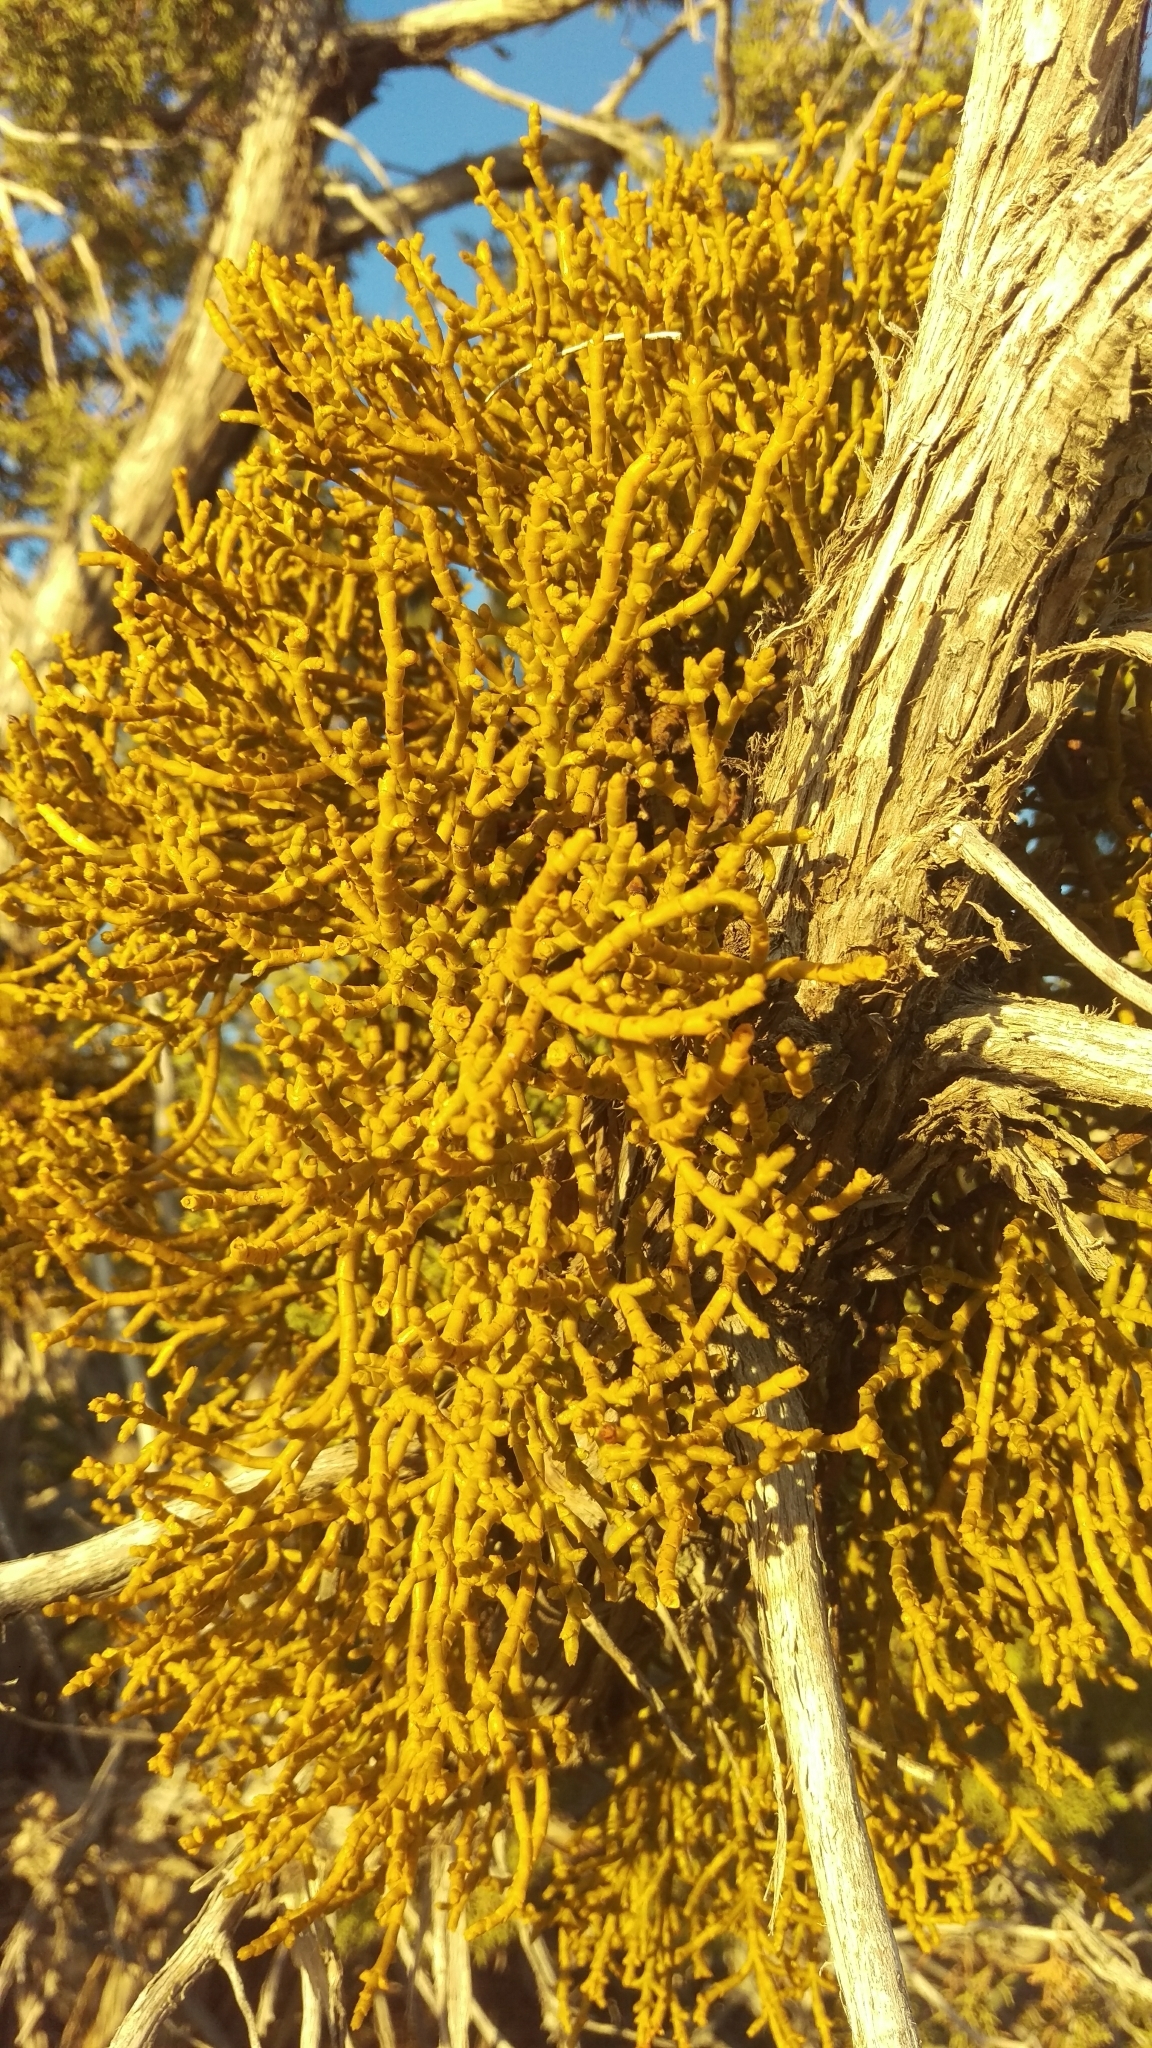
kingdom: Plantae
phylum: Tracheophyta
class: Magnoliopsida
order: Santalales
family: Viscaceae
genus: Phoradendron
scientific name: Phoradendron juniperinum
